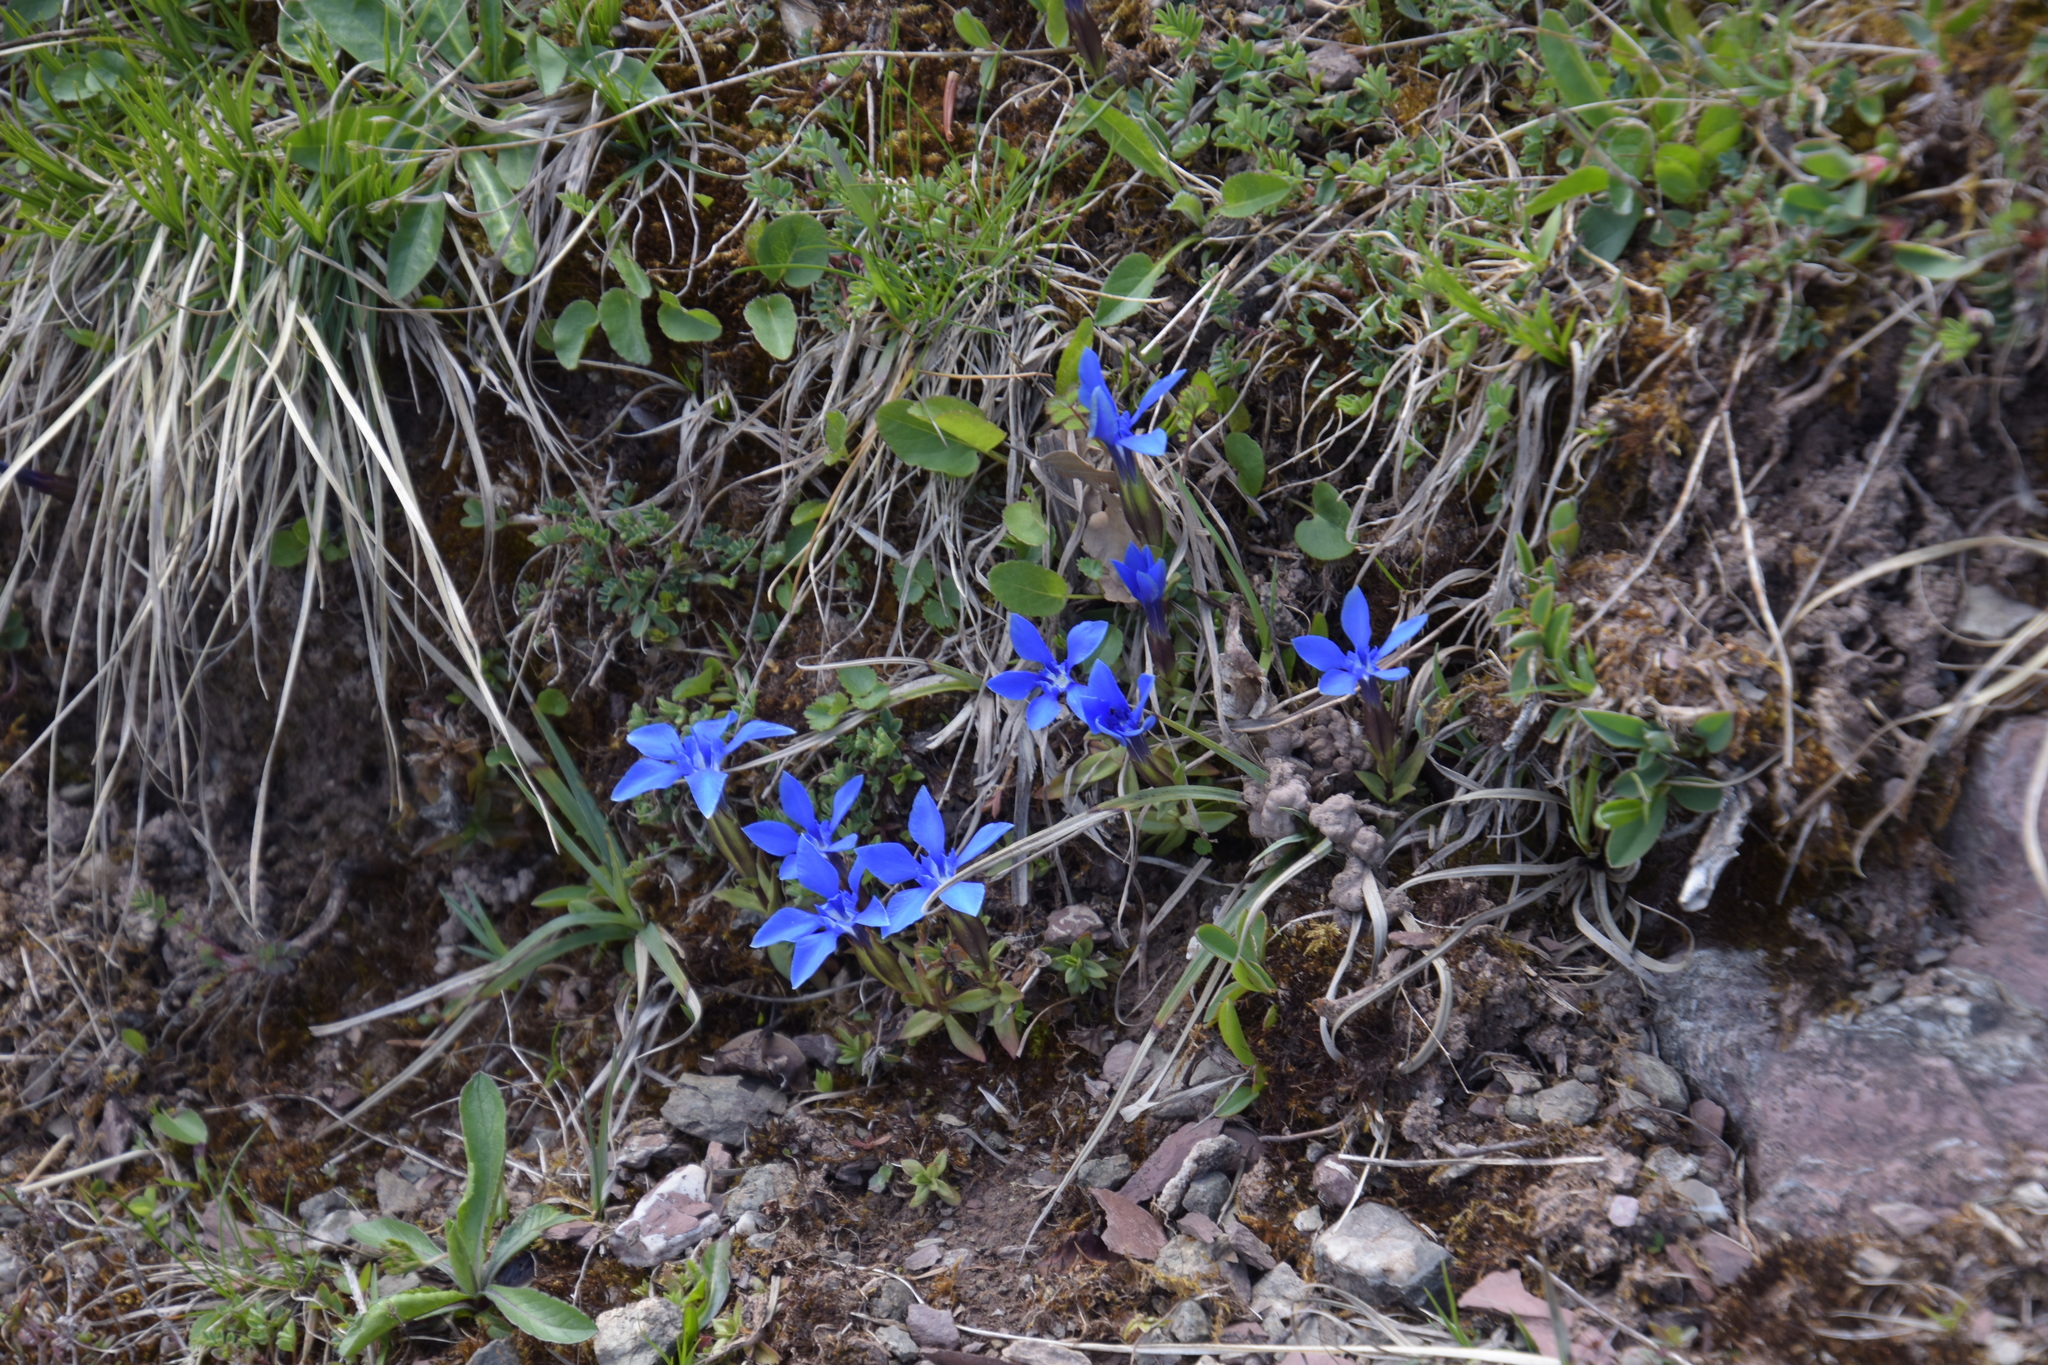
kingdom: Plantae
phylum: Tracheophyta
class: Magnoliopsida
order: Gentianales
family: Gentianaceae
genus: Gentiana
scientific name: Gentiana verna
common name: Spring gentian
